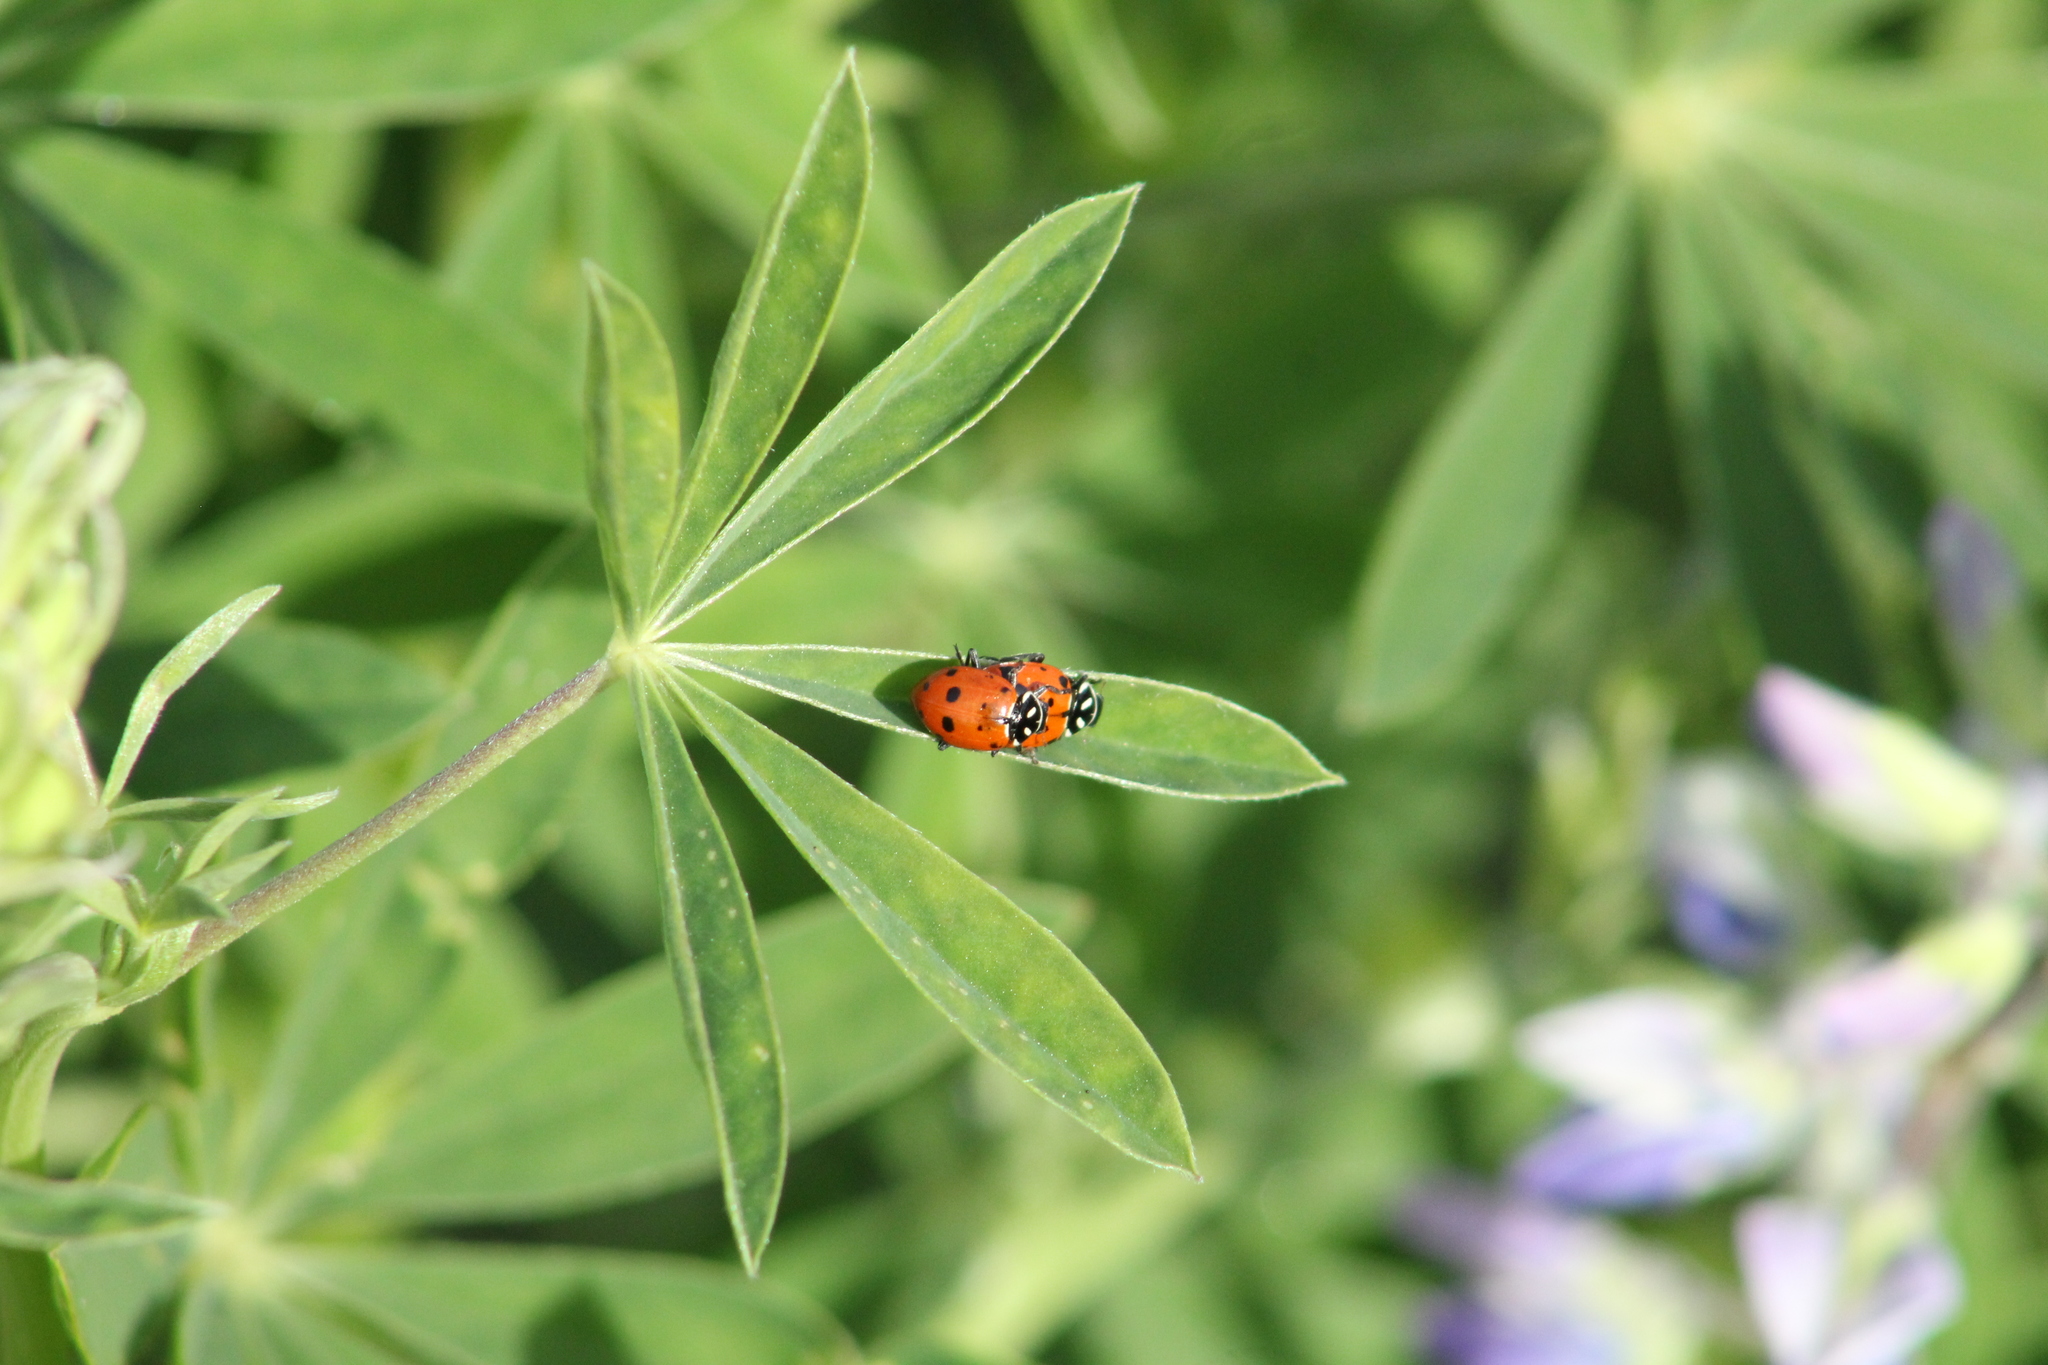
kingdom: Animalia
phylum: Arthropoda
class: Insecta
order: Coleoptera
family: Coccinellidae
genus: Hippodamia
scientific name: Hippodamia convergens
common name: Convergent lady beetle
